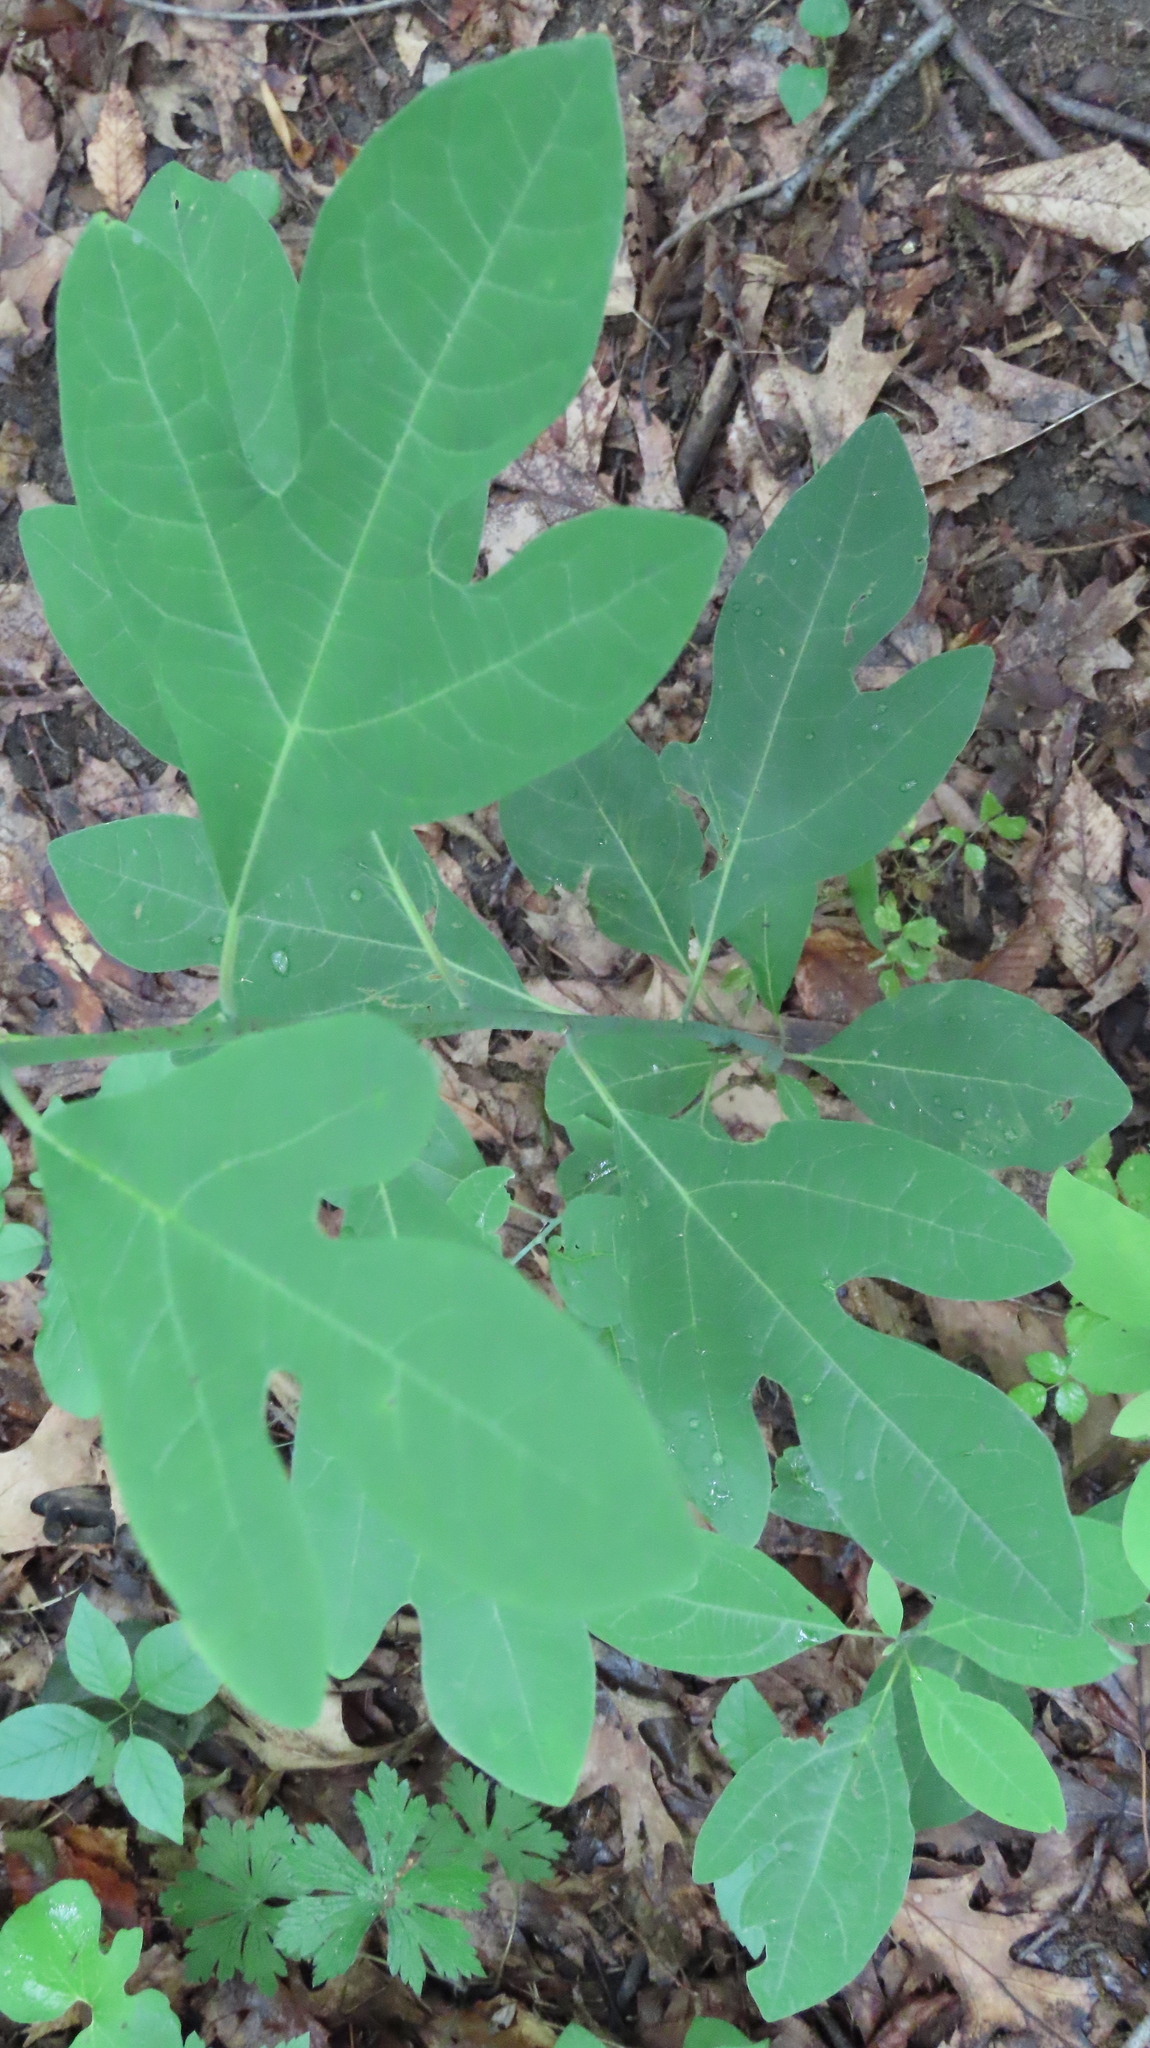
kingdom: Plantae
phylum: Tracheophyta
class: Magnoliopsida
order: Laurales
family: Lauraceae
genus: Sassafras
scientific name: Sassafras albidum
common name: Sassafras
